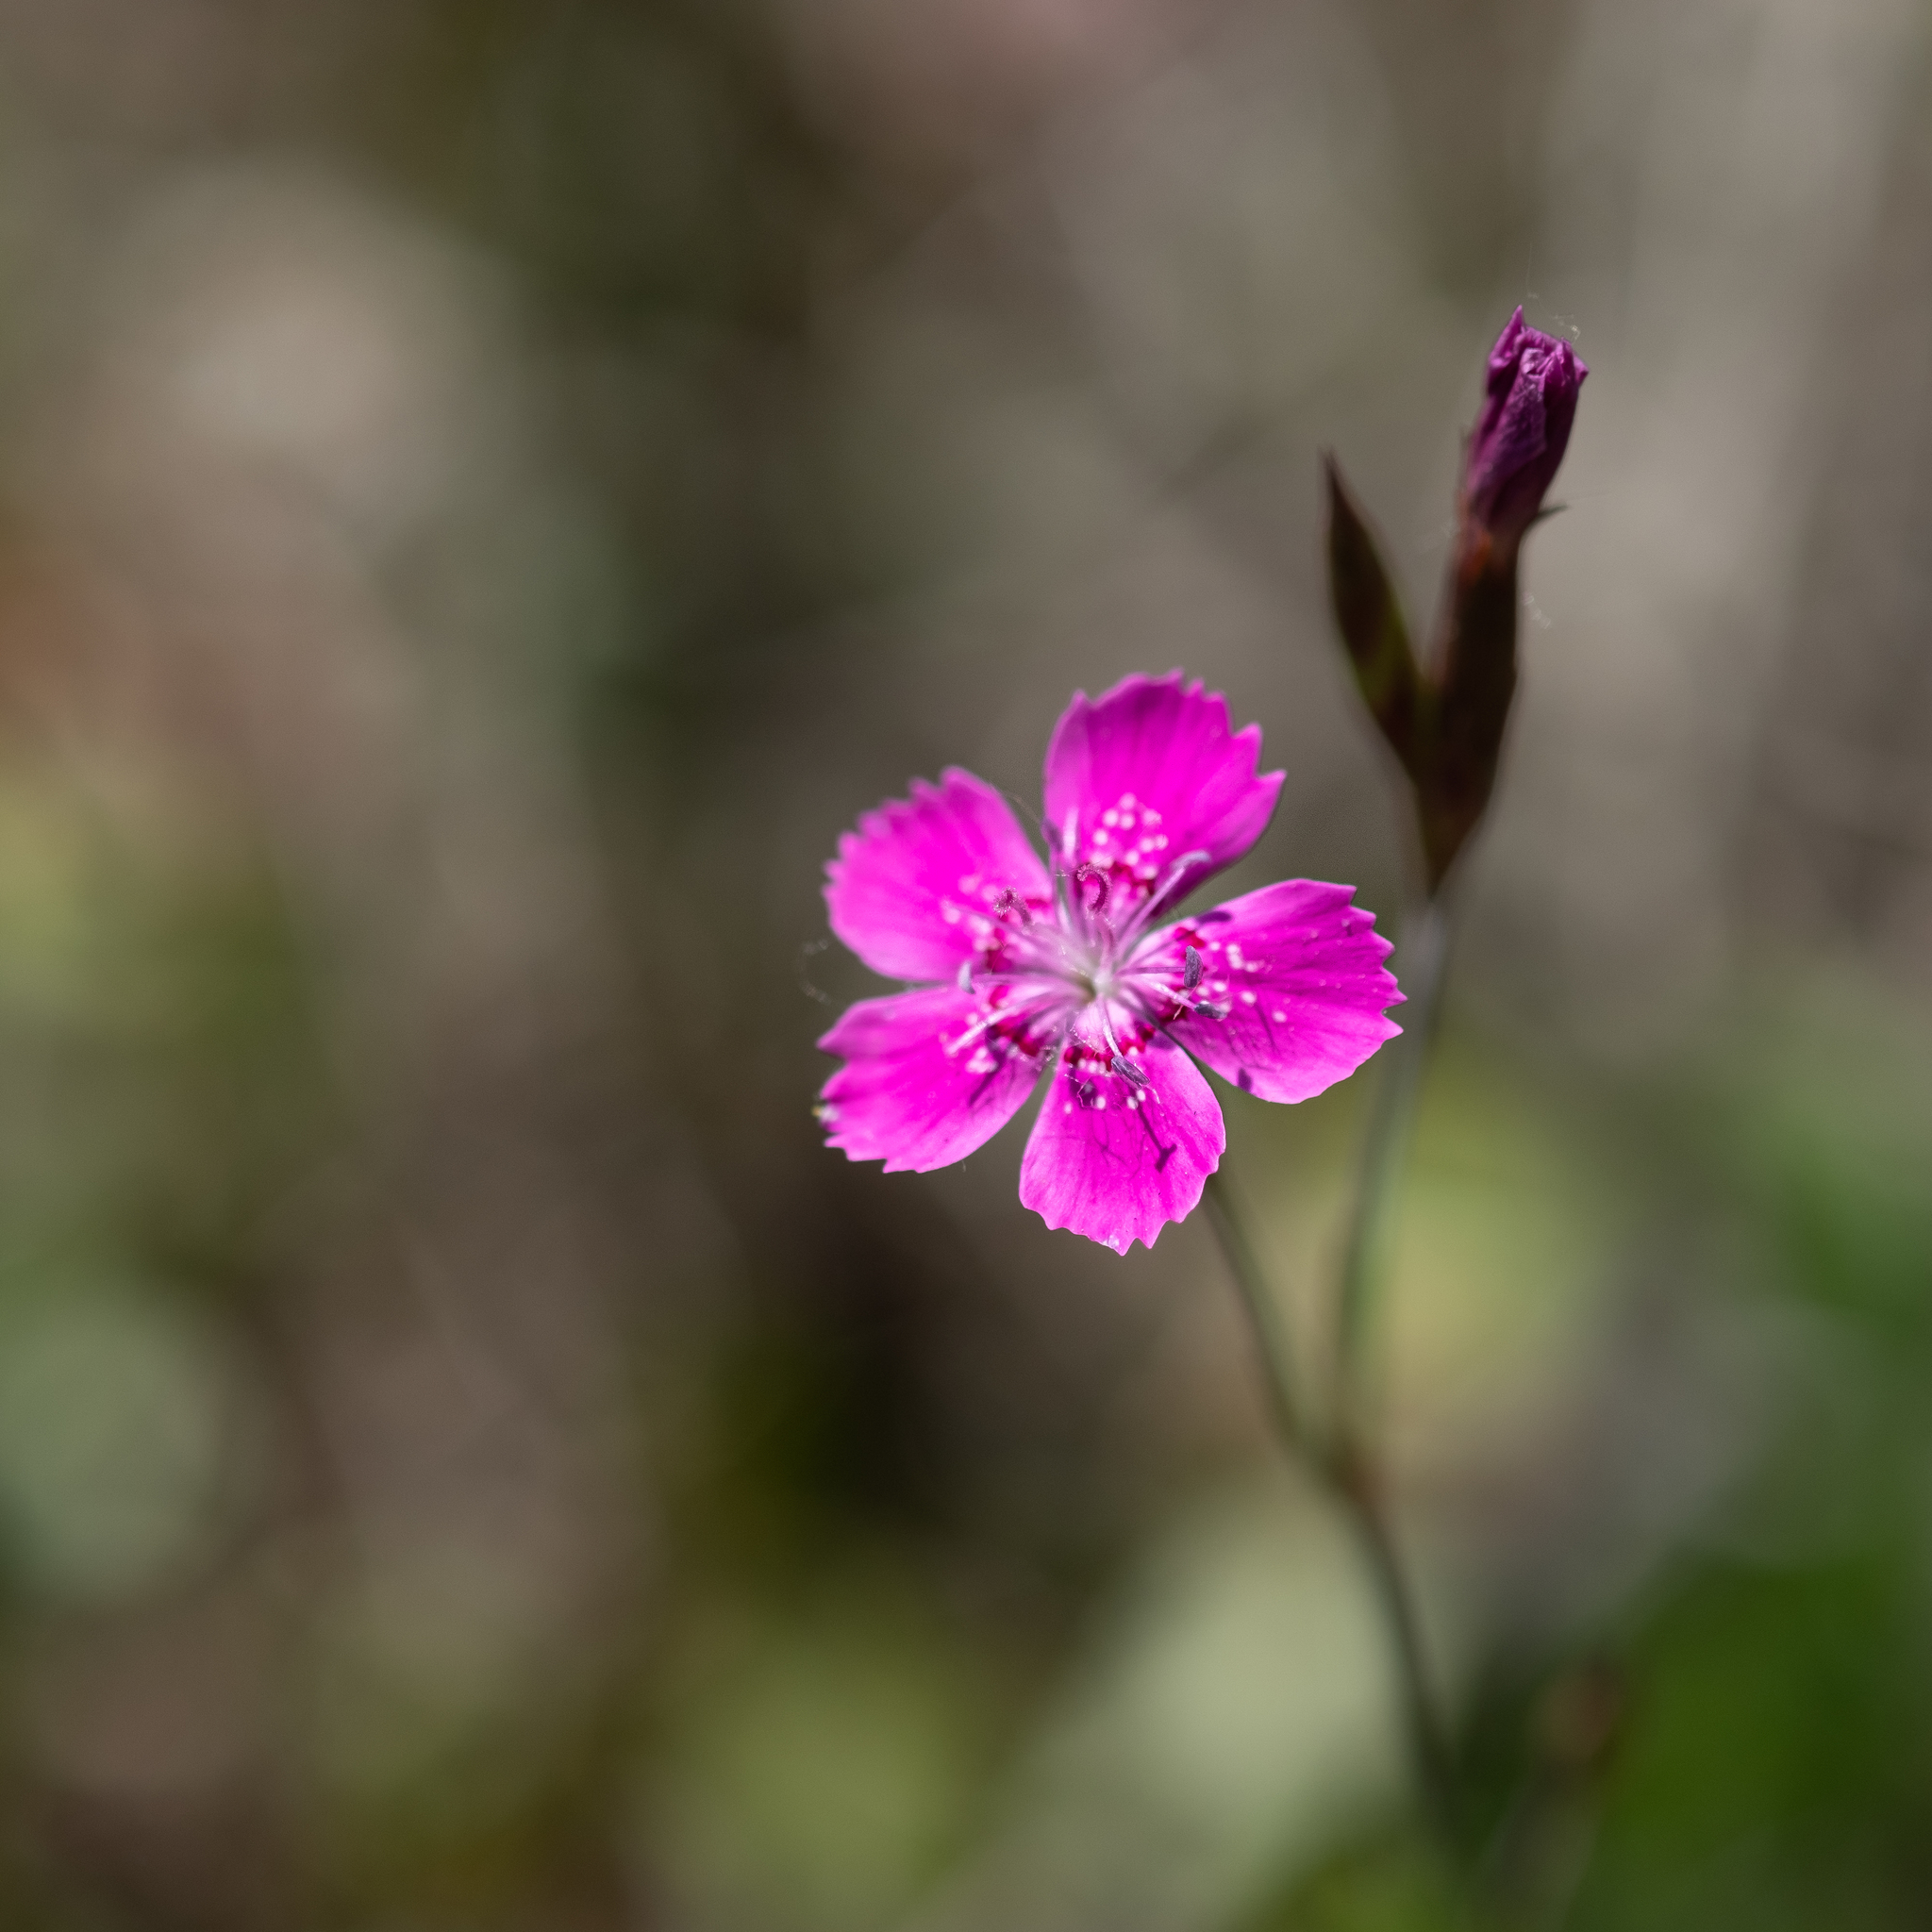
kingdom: Plantae
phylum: Tracheophyta
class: Magnoliopsida
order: Caryophyllales
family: Caryophyllaceae
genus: Dianthus
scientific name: Dianthus deltoides
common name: Maiden pink
